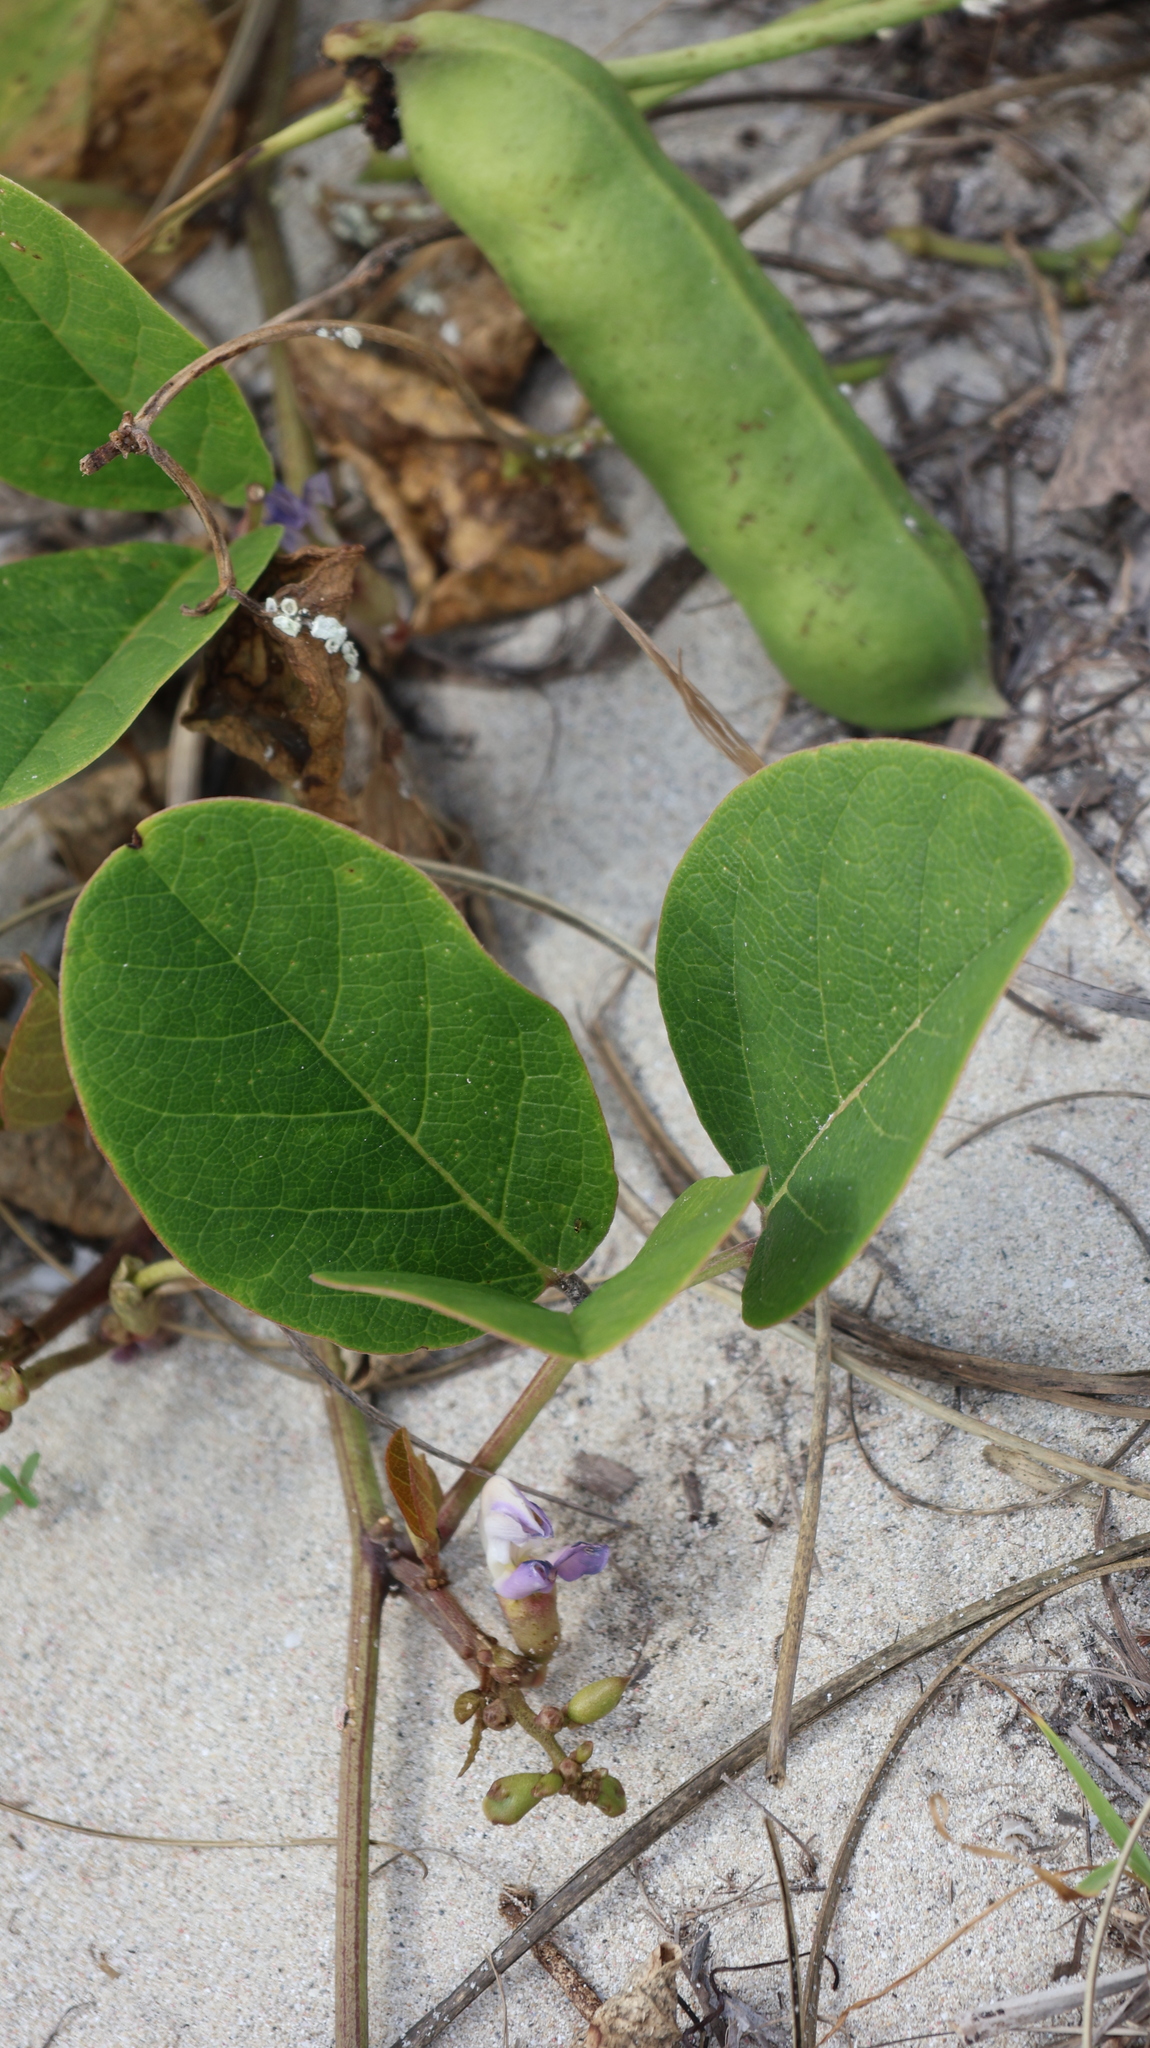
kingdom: Plantae
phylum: Tracheophyta
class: Magnoliopsida
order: Fabales
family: Fabaceae
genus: Canavalia
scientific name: Canavalia rosea
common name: Beach-bean
